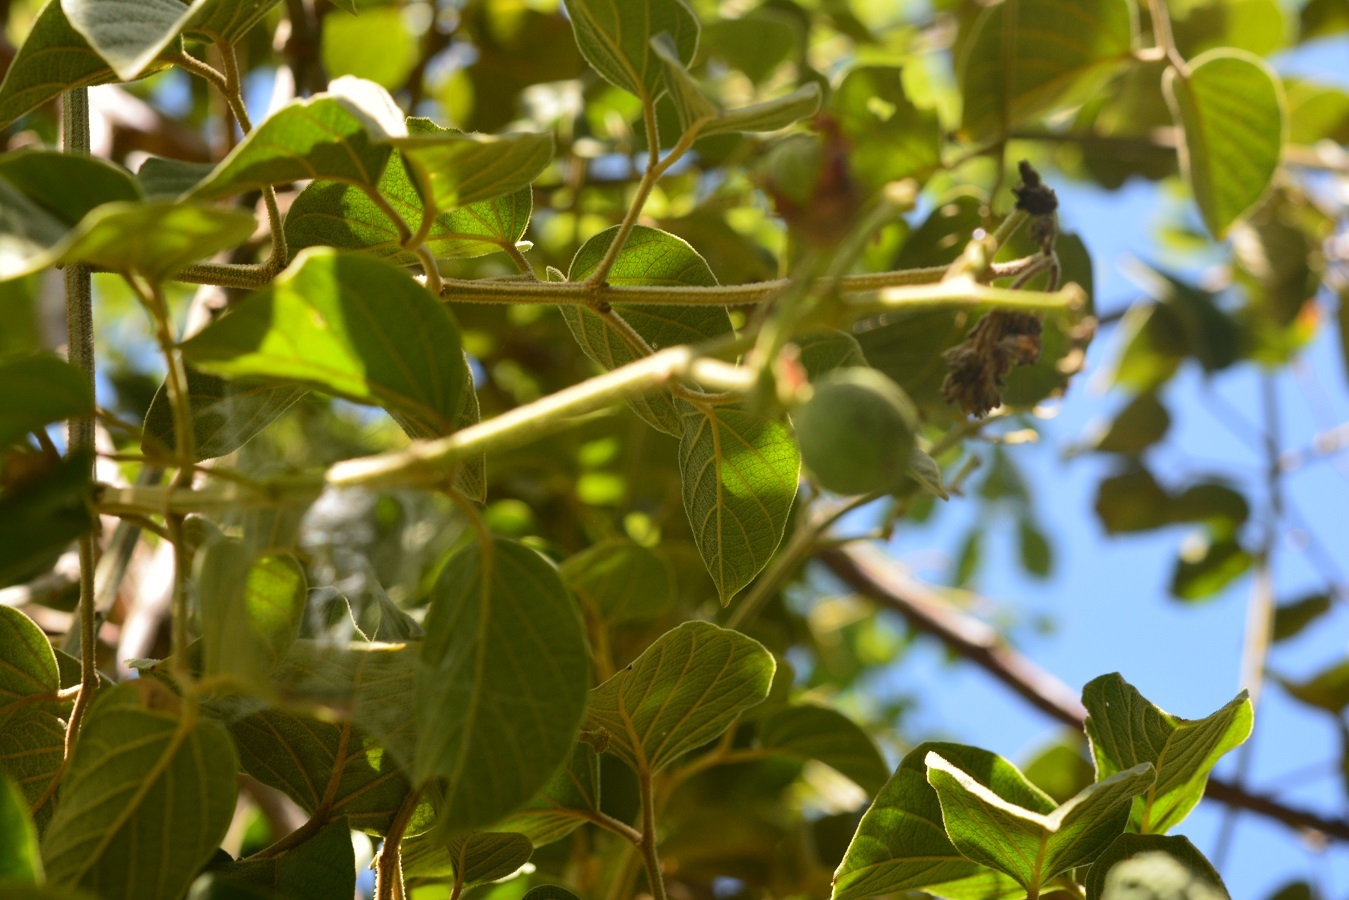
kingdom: Plantae
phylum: Tracheophyta
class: Magnoliopsida
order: Lamiales
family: Bignoniaceae
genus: Amphilophium
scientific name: Amphilophium paniculatum
